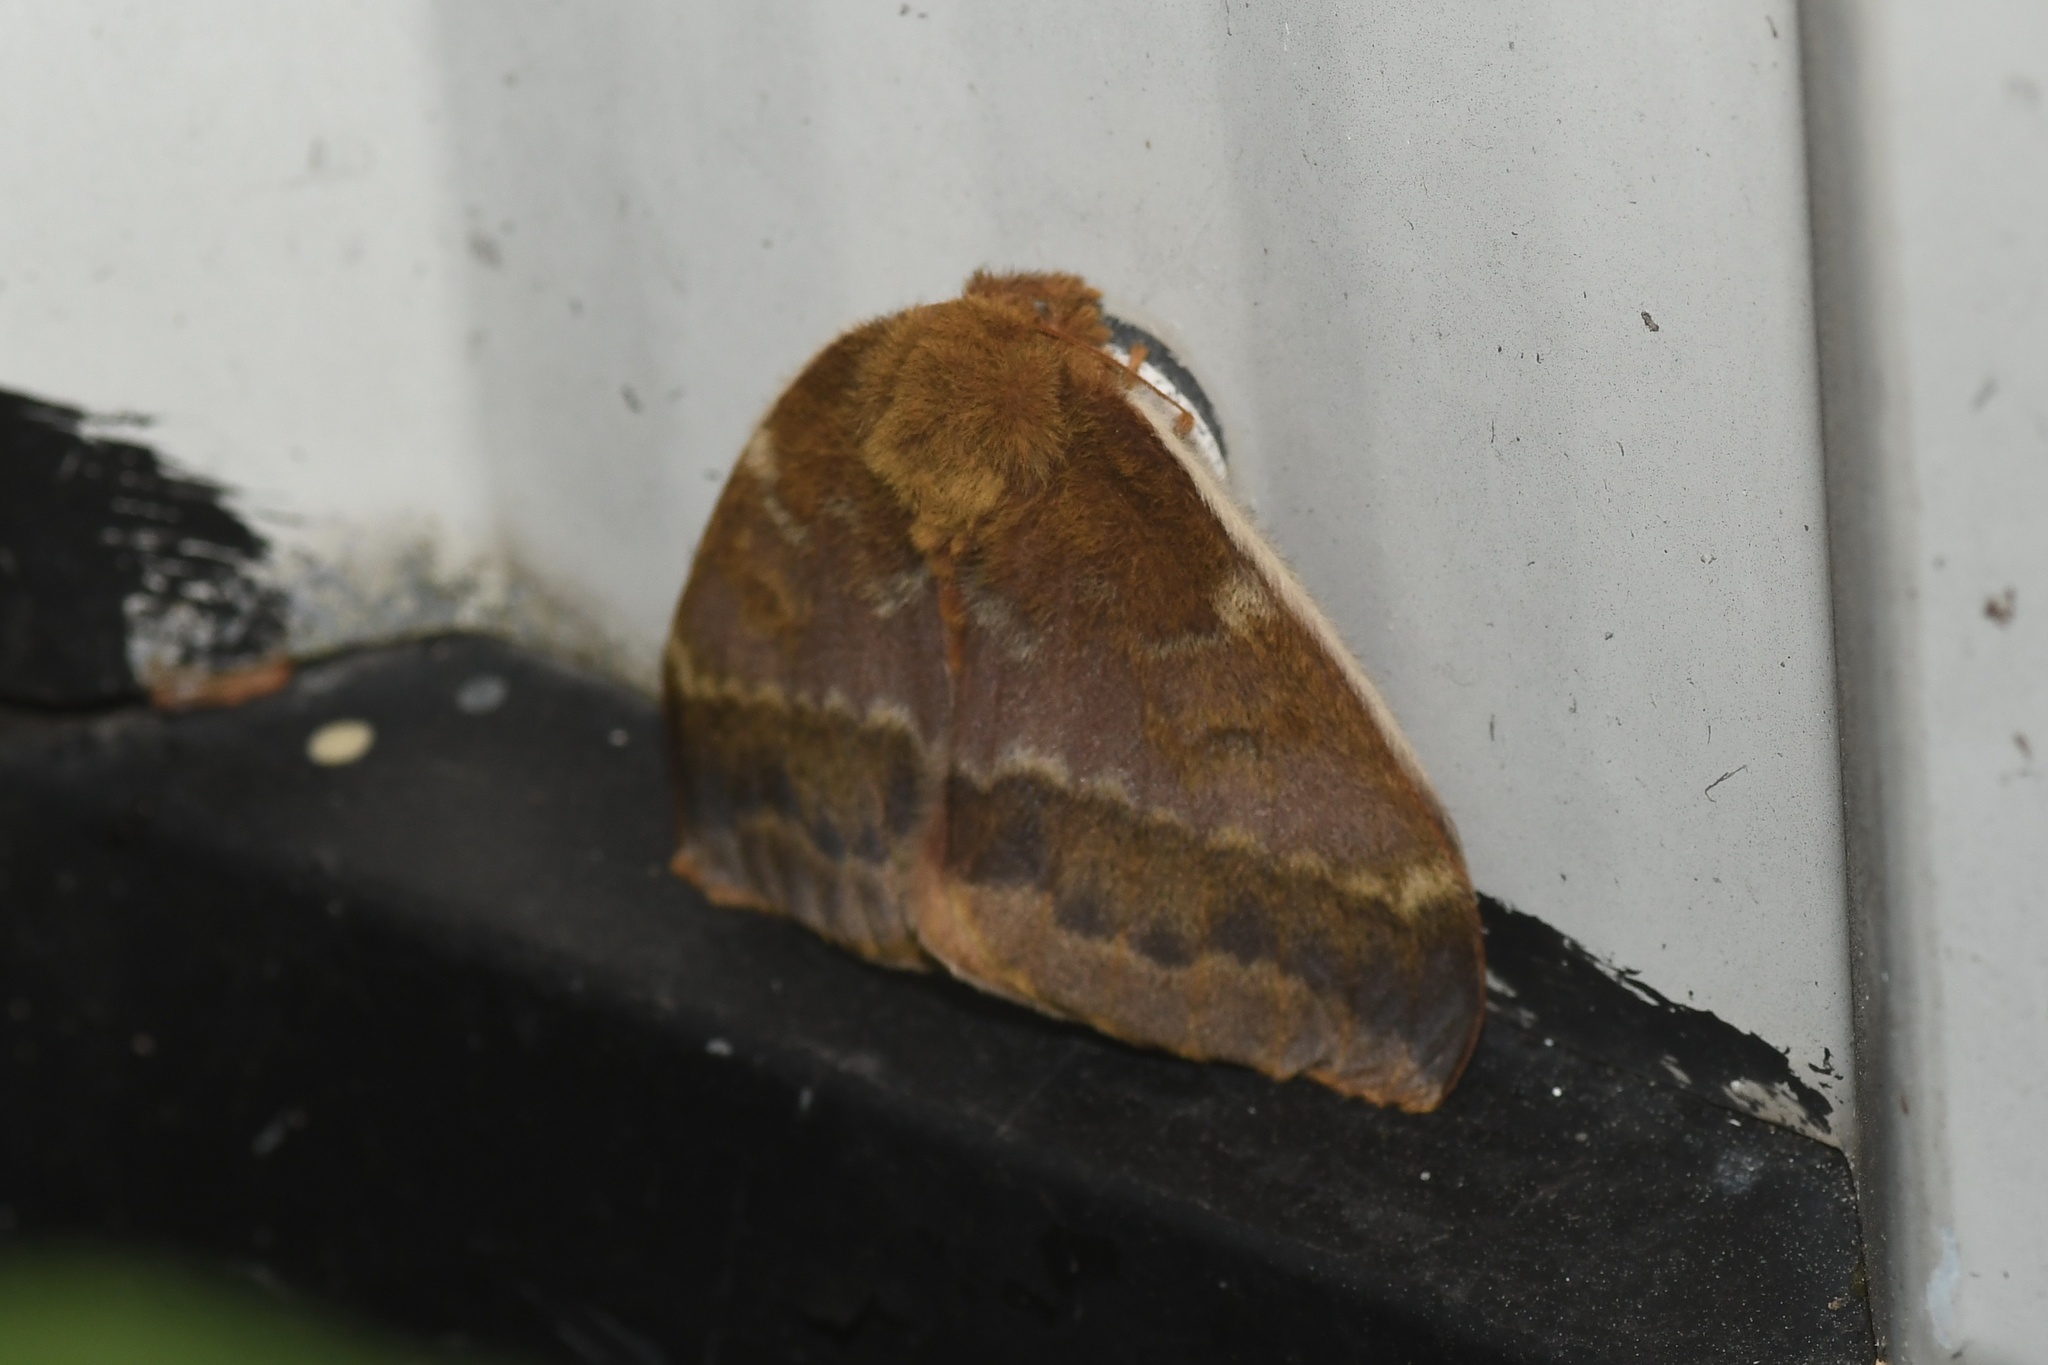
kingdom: Animalia
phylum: Arthropoda
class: Insecta
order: Lepidoptera
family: Saturniidae
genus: Automeris
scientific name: Automeris io
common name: Io moth
